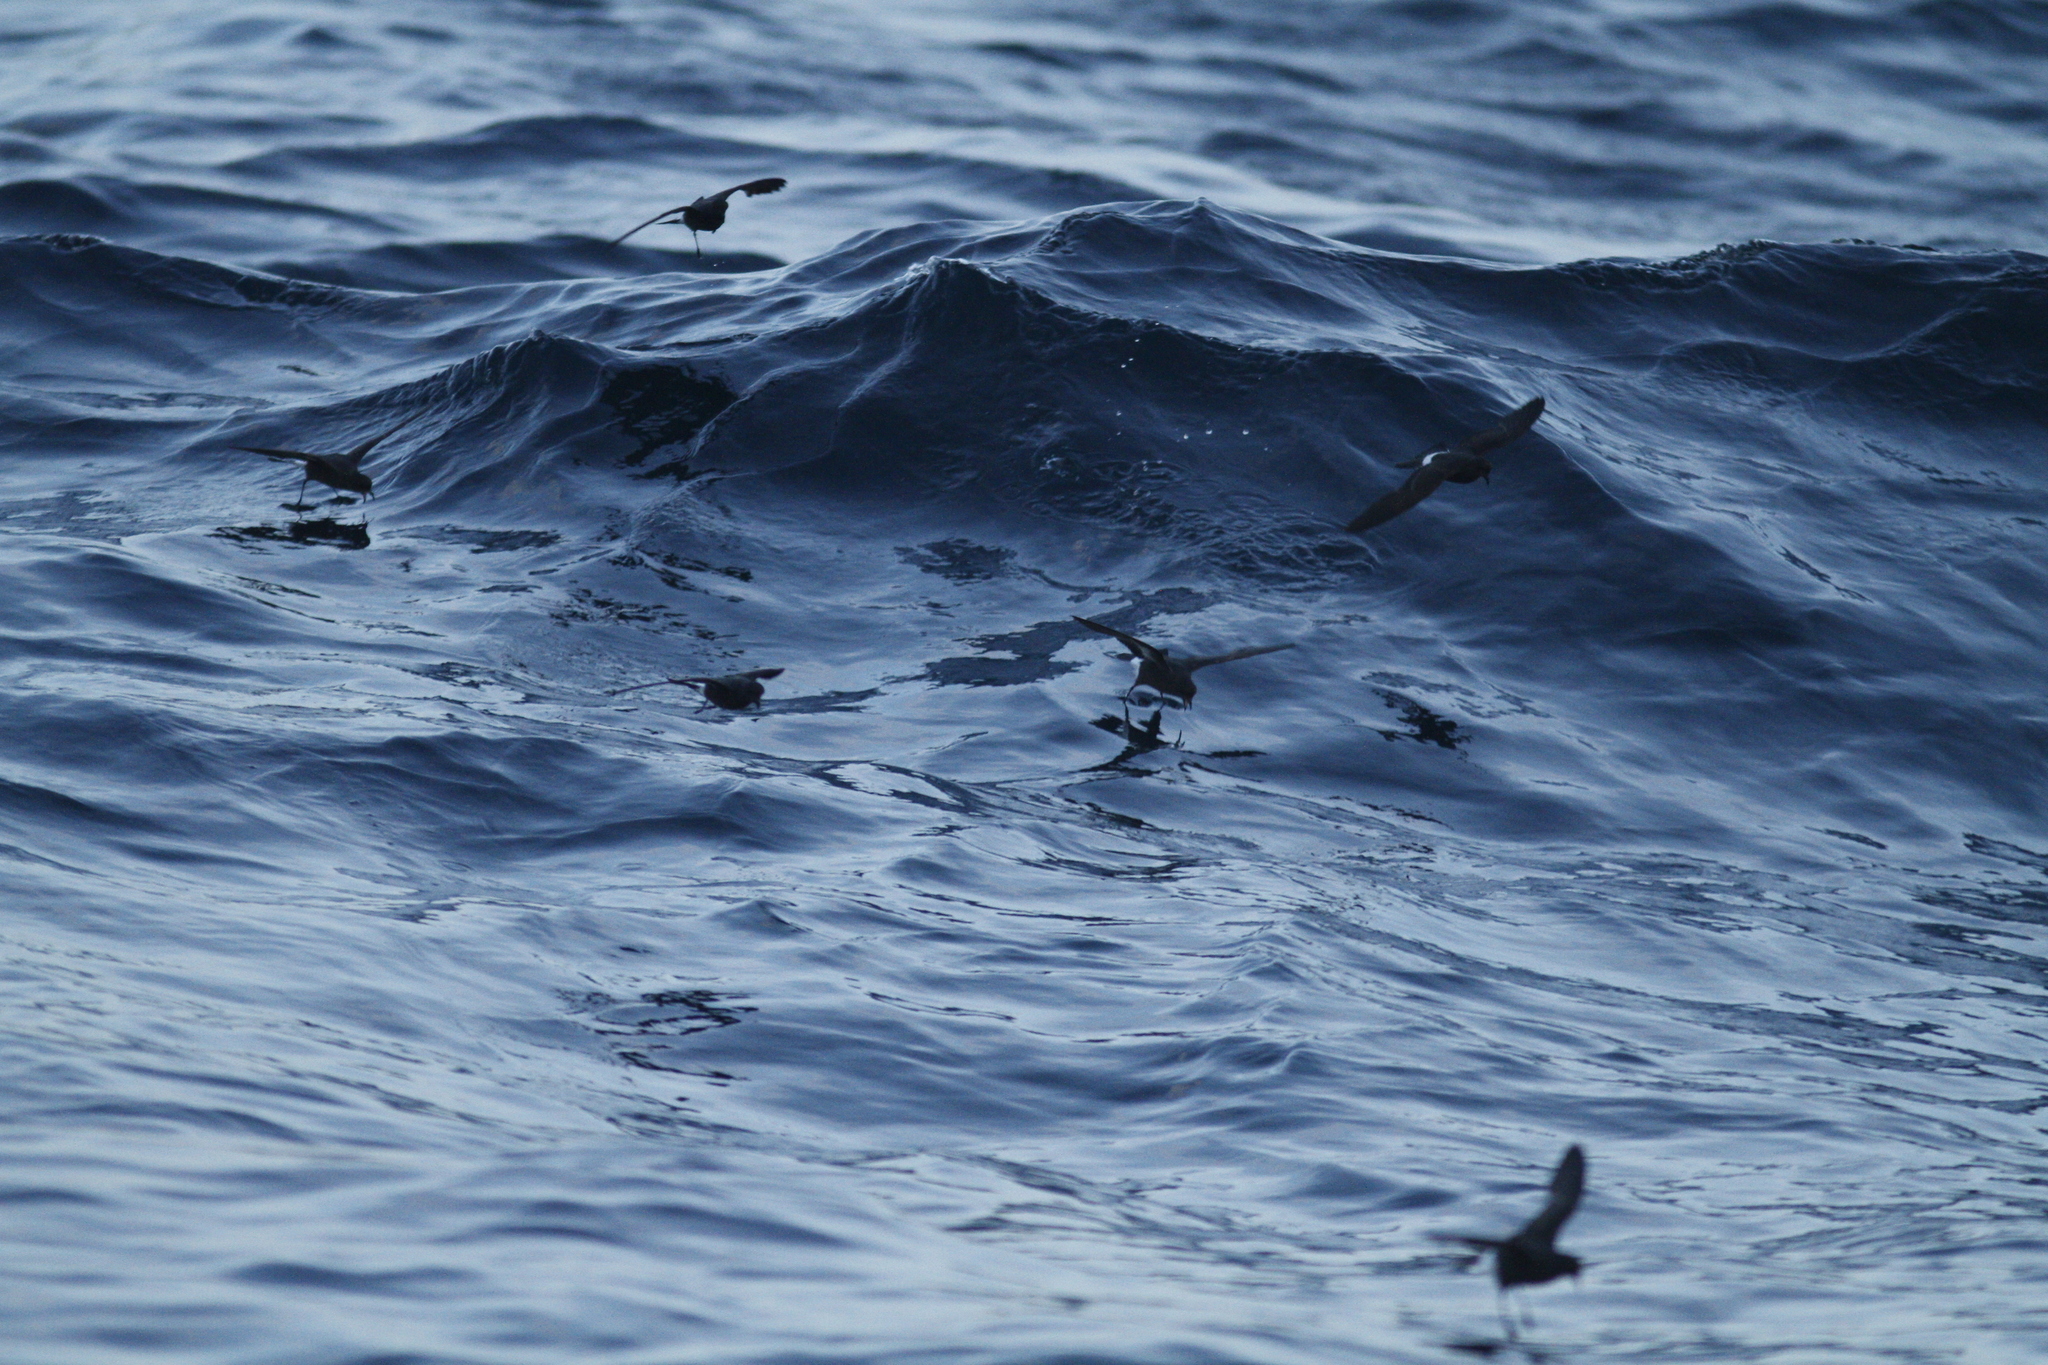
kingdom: Animalia
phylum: Chordata
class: Aves
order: Procellariiformes
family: Hydrobatidae
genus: Hydrobates
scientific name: Hydrobates pelagicus
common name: European storm-petrel
